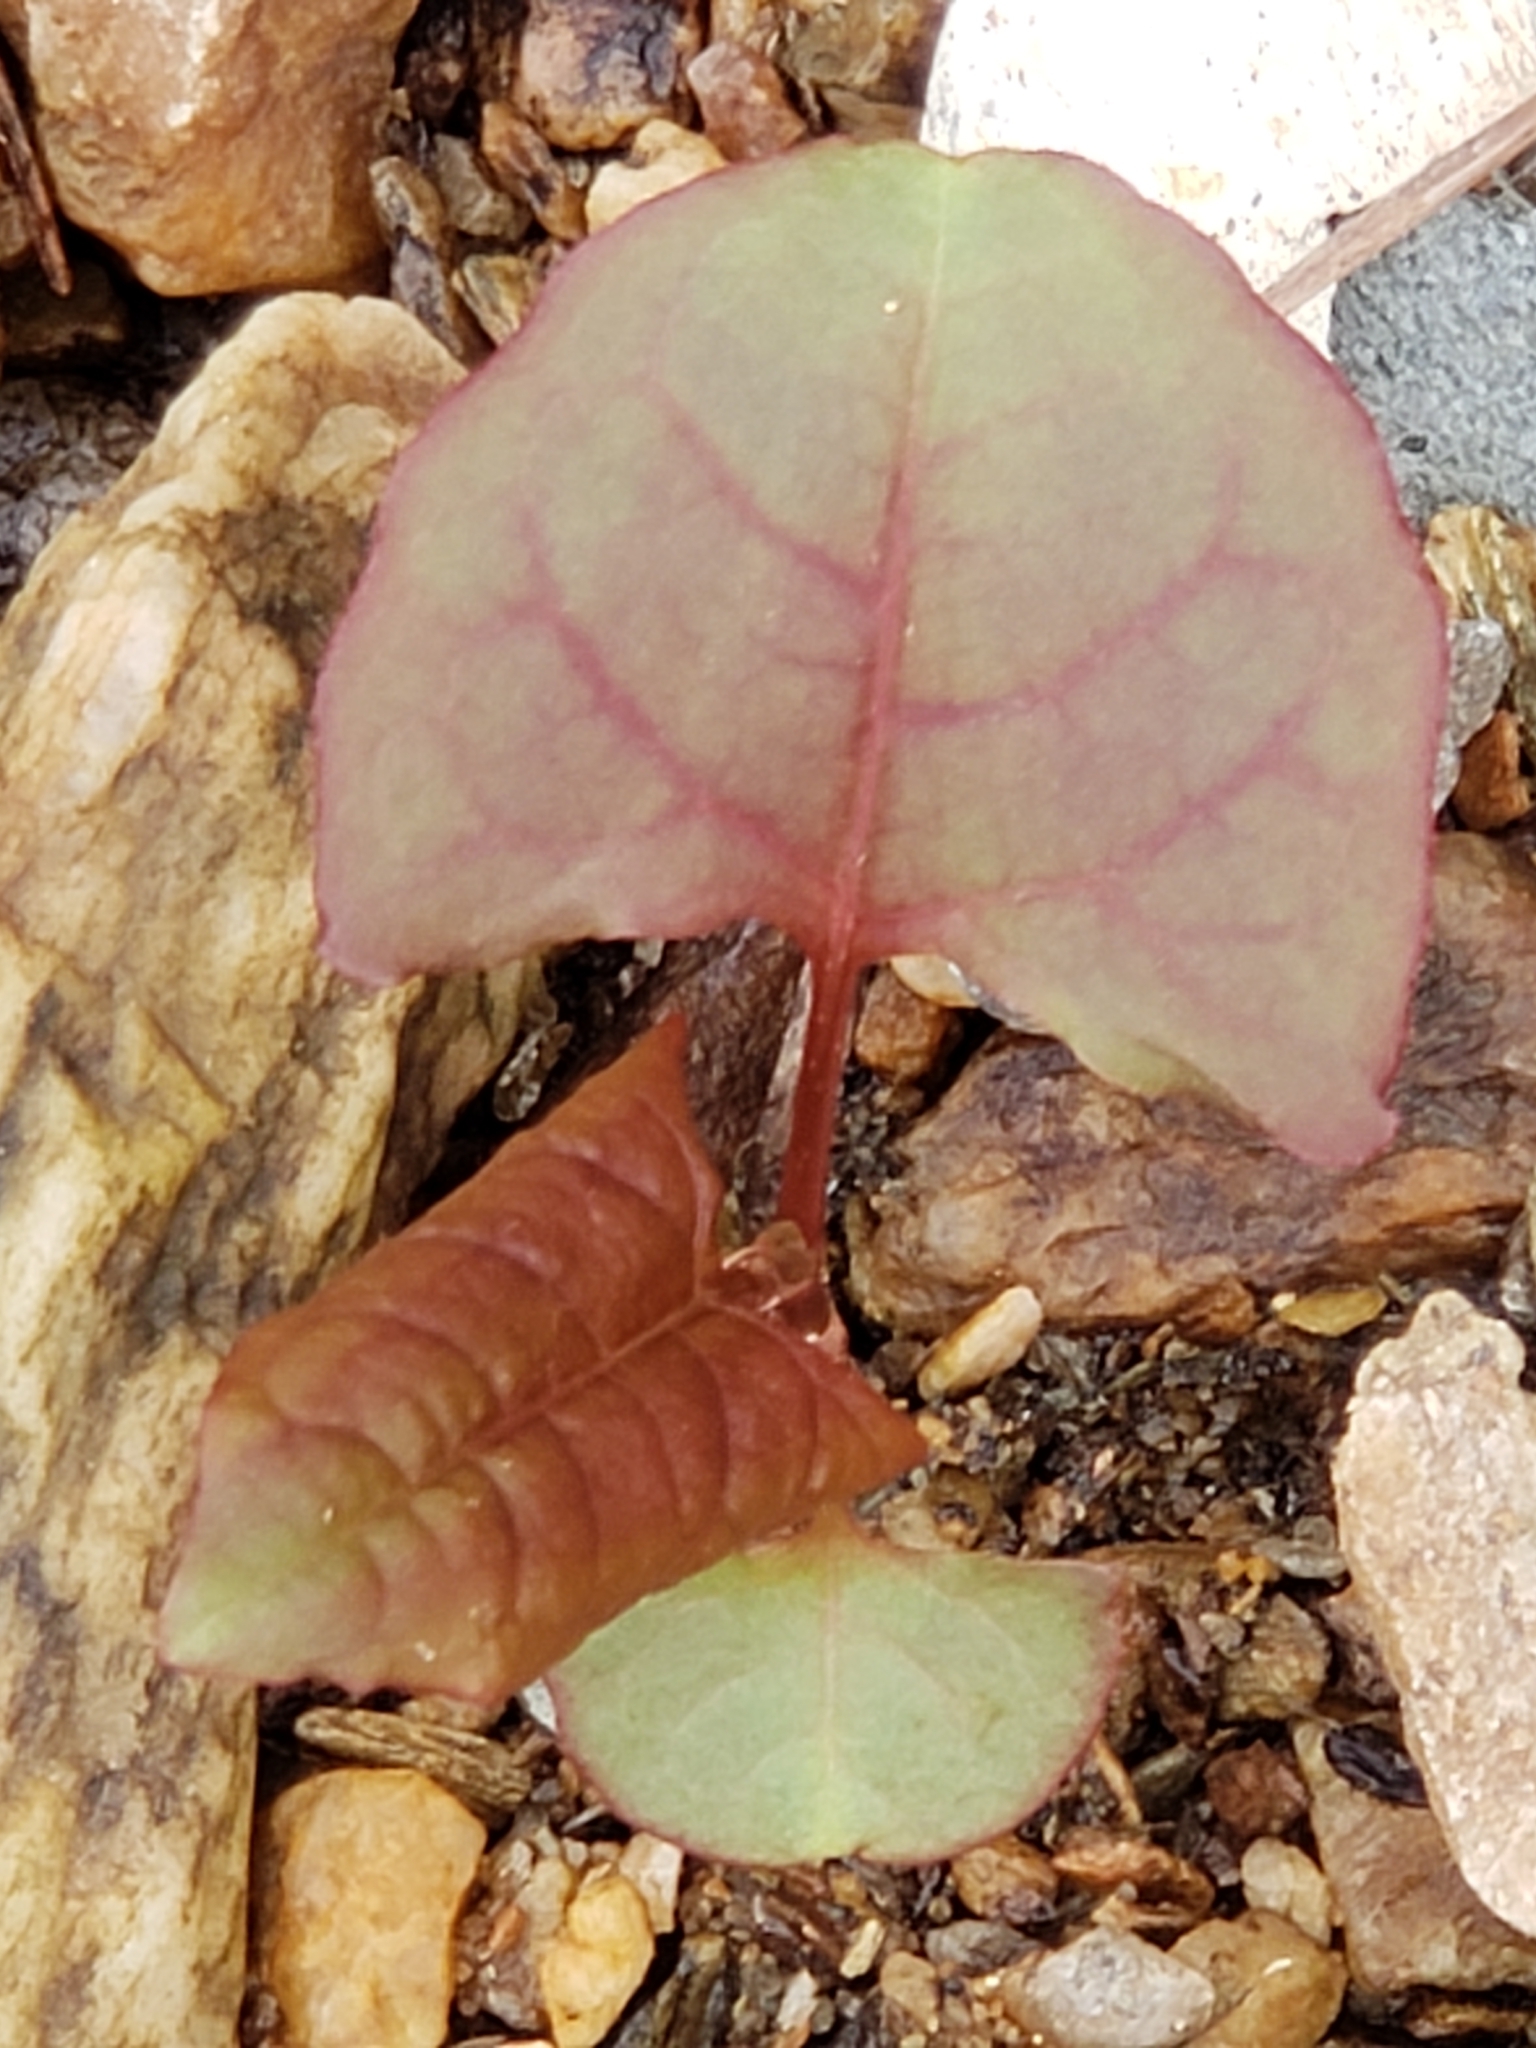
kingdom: Plantae
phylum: Tracheophyta
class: Magnoliopsida
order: Caryophyllales
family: Polygonaceae
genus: Reynoutria
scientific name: Reynoutria japonica
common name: Japanese knotweed
